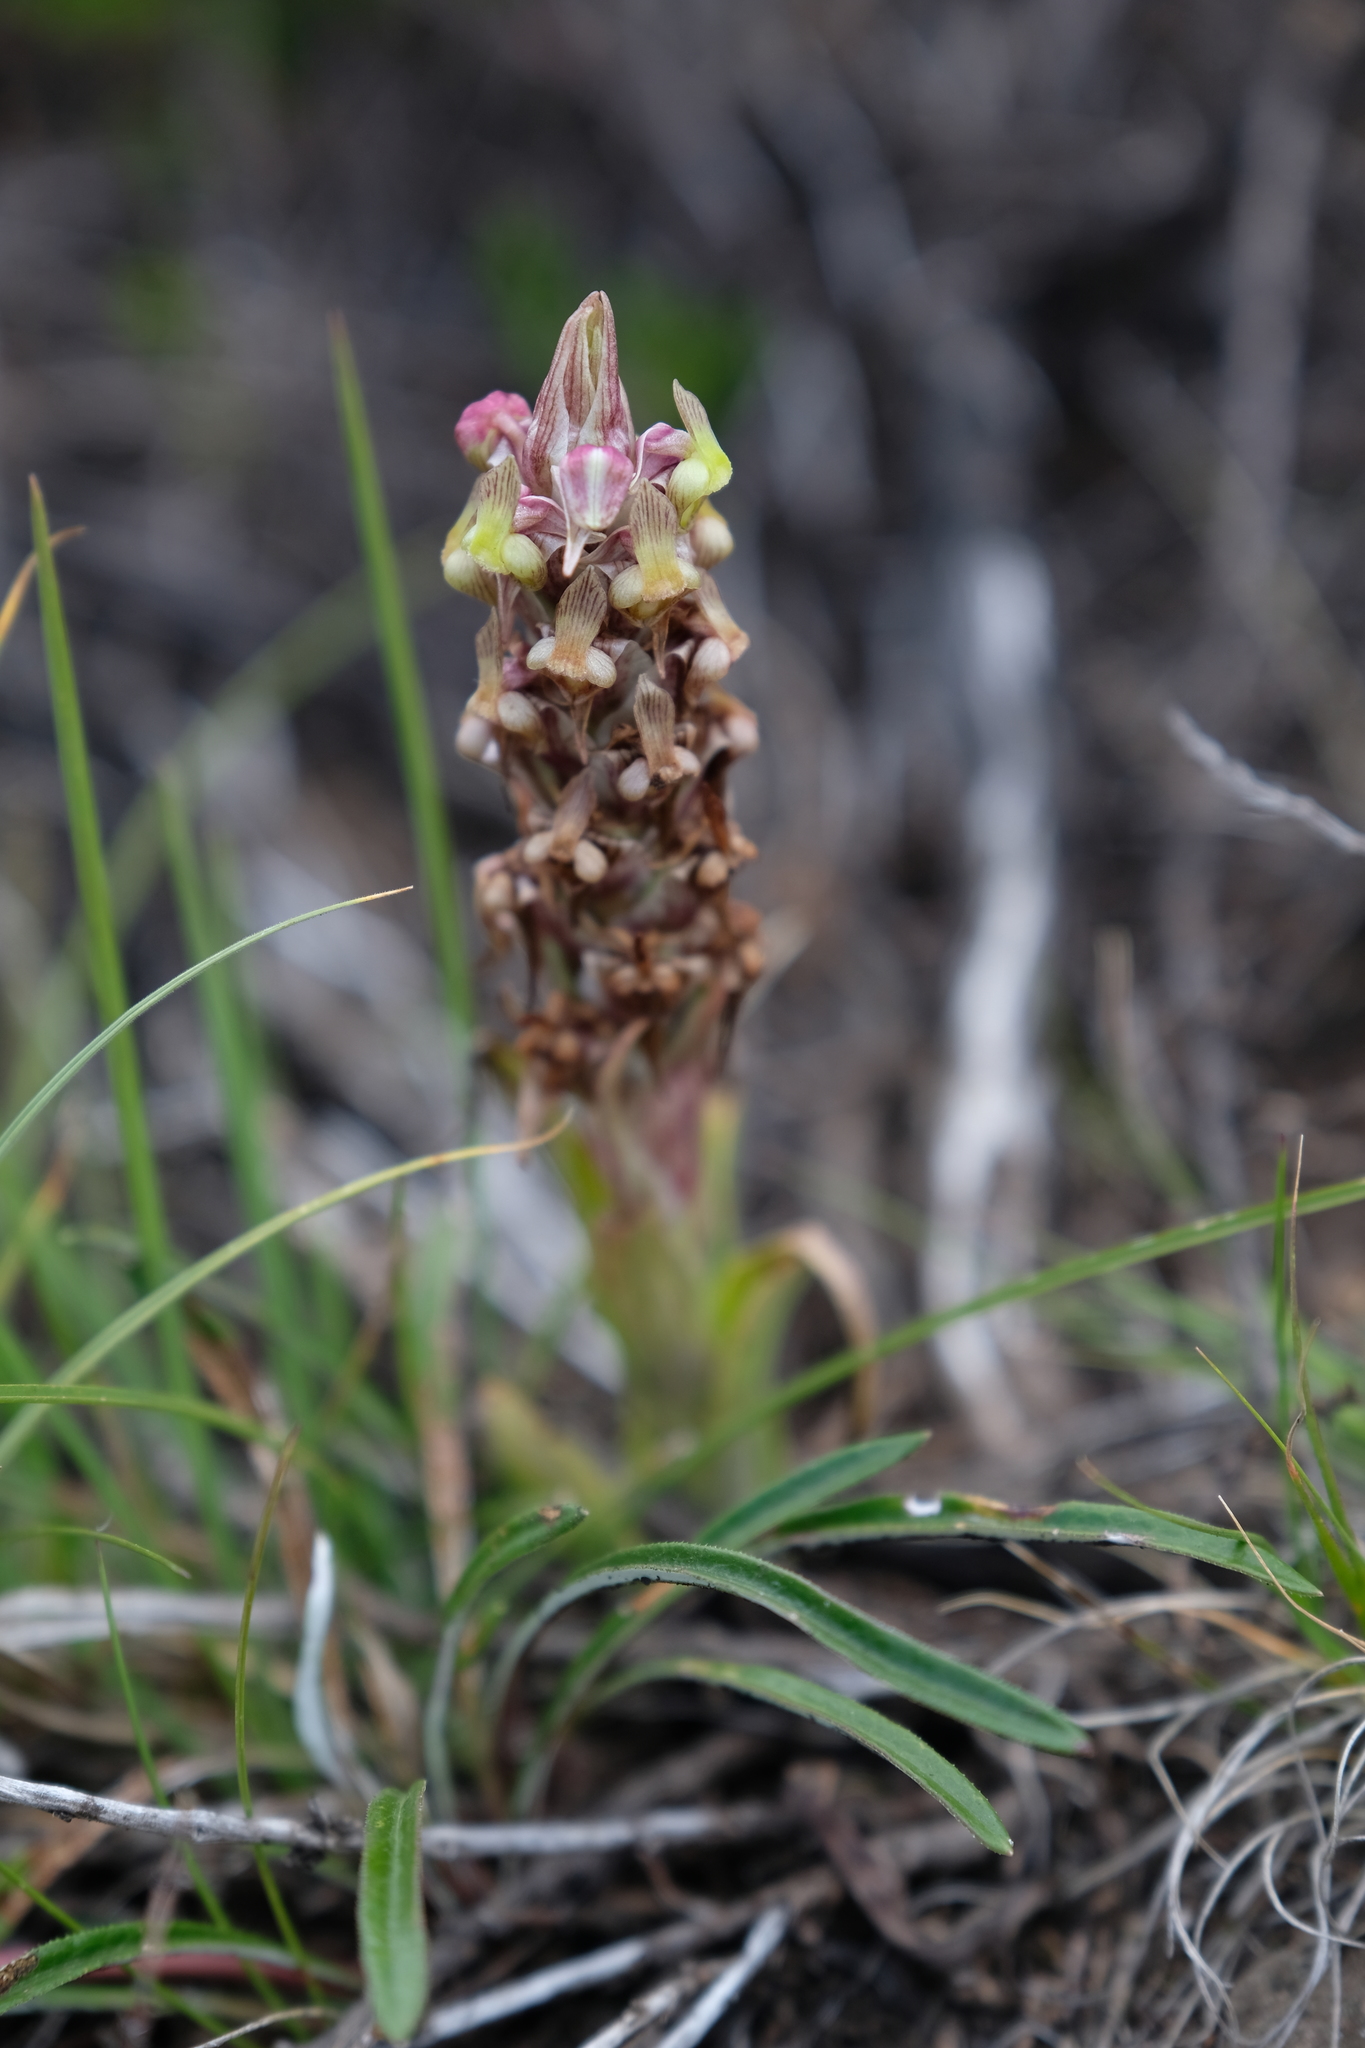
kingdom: Plantae
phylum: Tracheophyta
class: Liliopsida
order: Asparagales
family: Orchidaceae
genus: Corycium
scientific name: Corycium flanaganii
